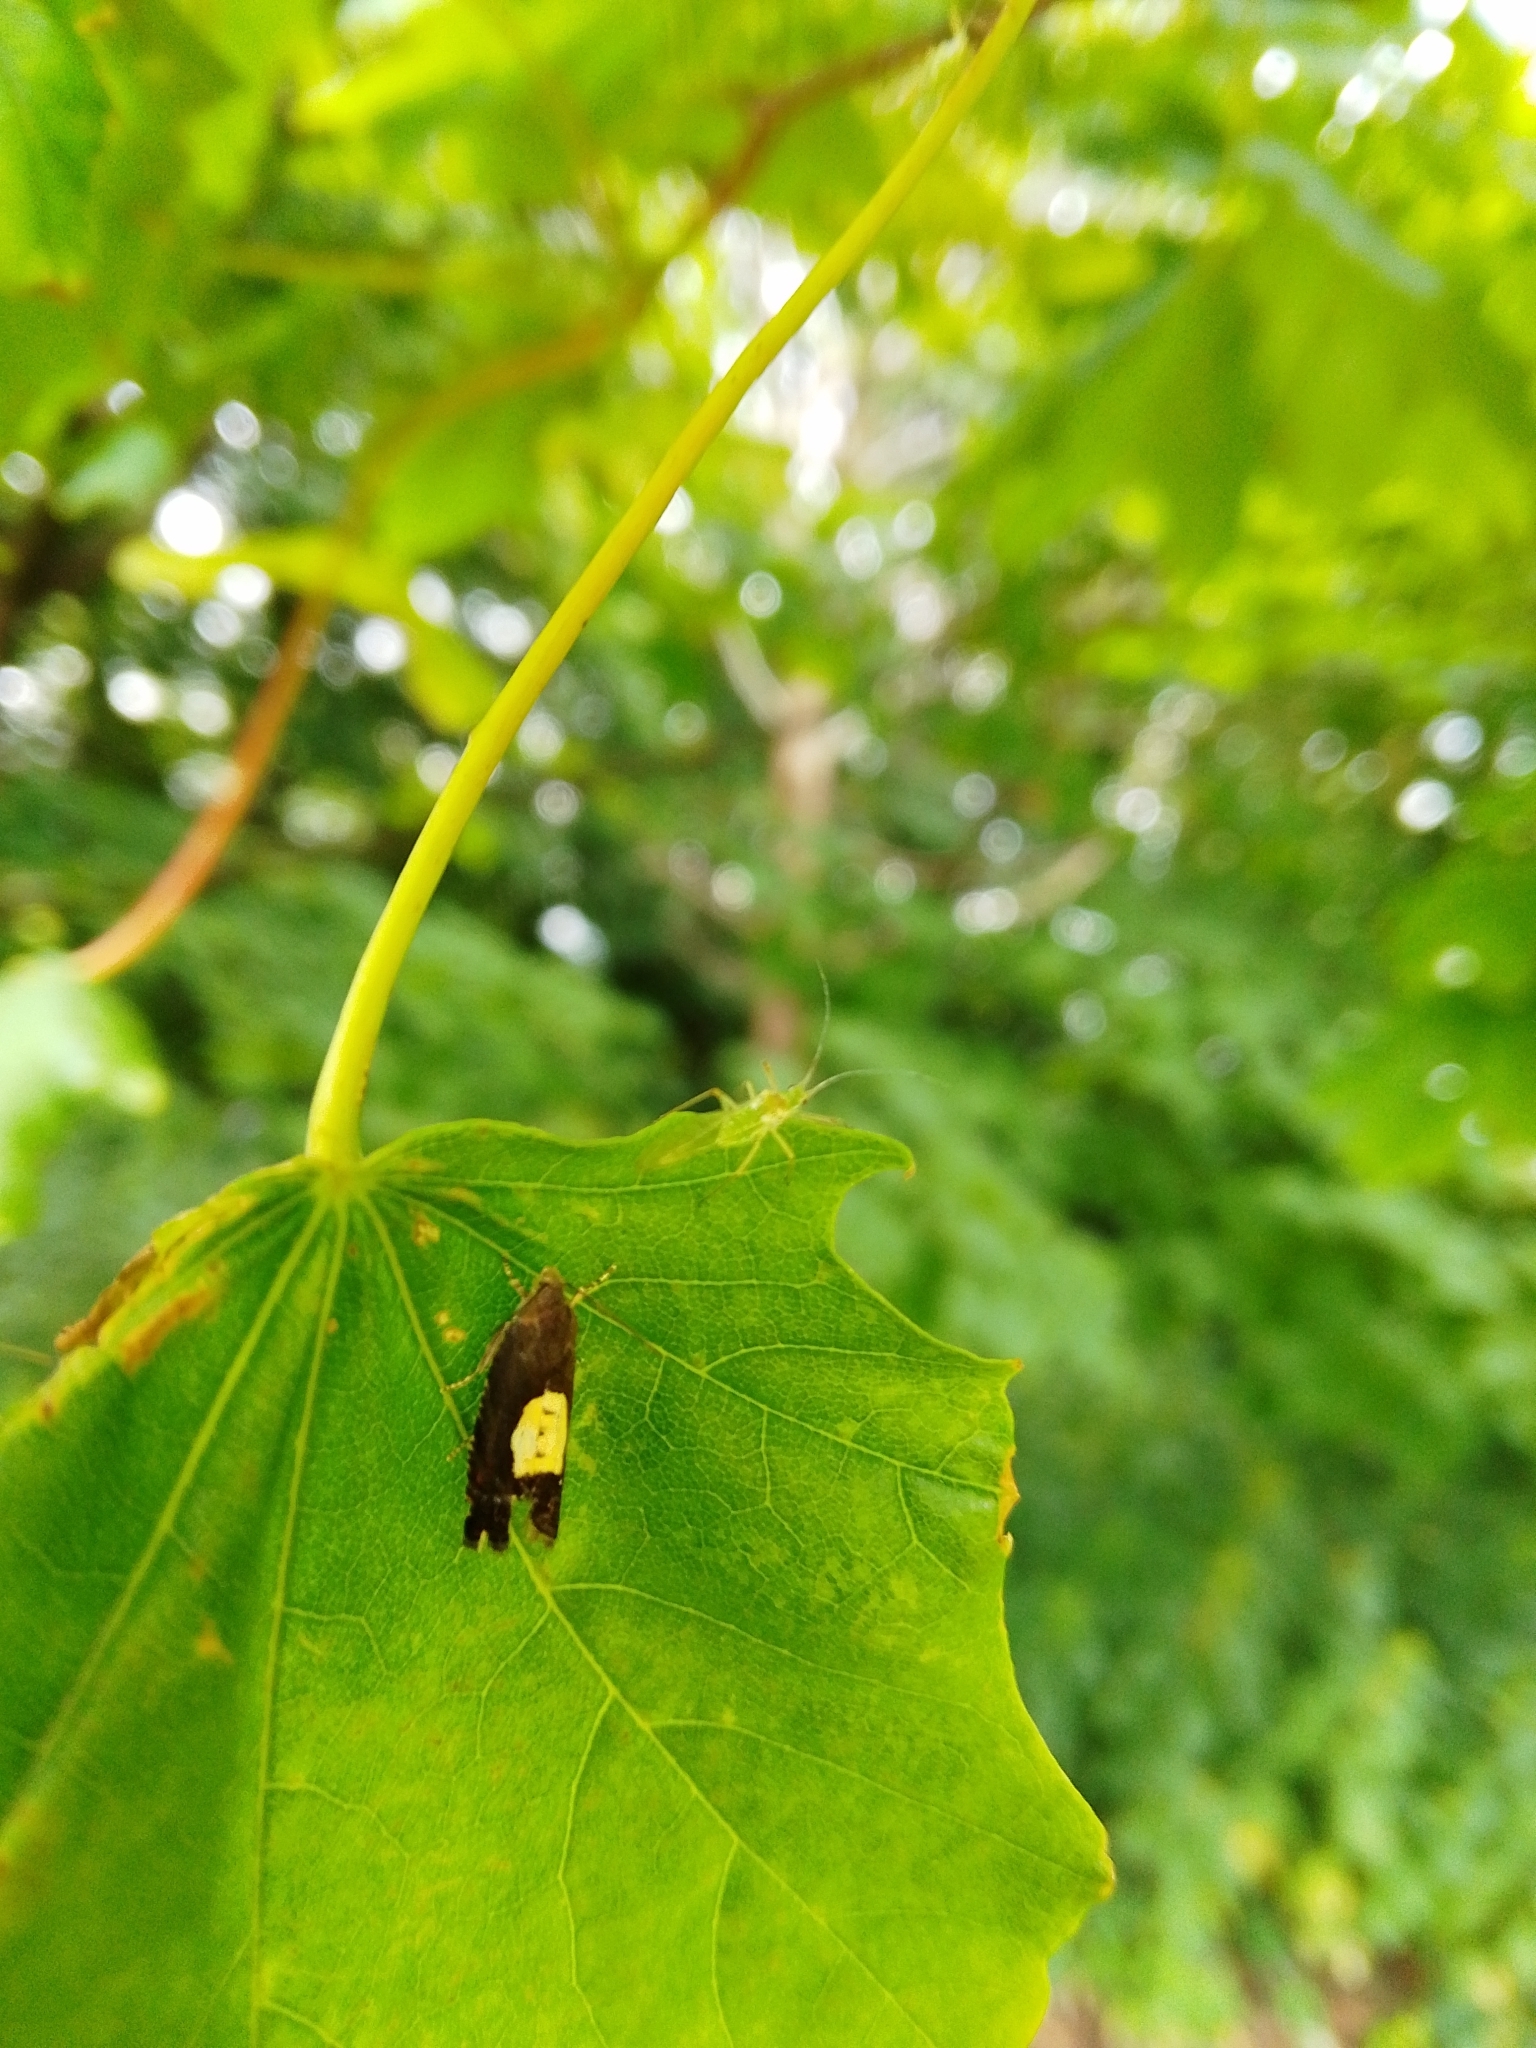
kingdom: Animalia
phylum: Arthropoda
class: Insecta
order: Lepidoptera
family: Tortricidae
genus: Pammene
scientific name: Pammene regiana
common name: Regal piercer
